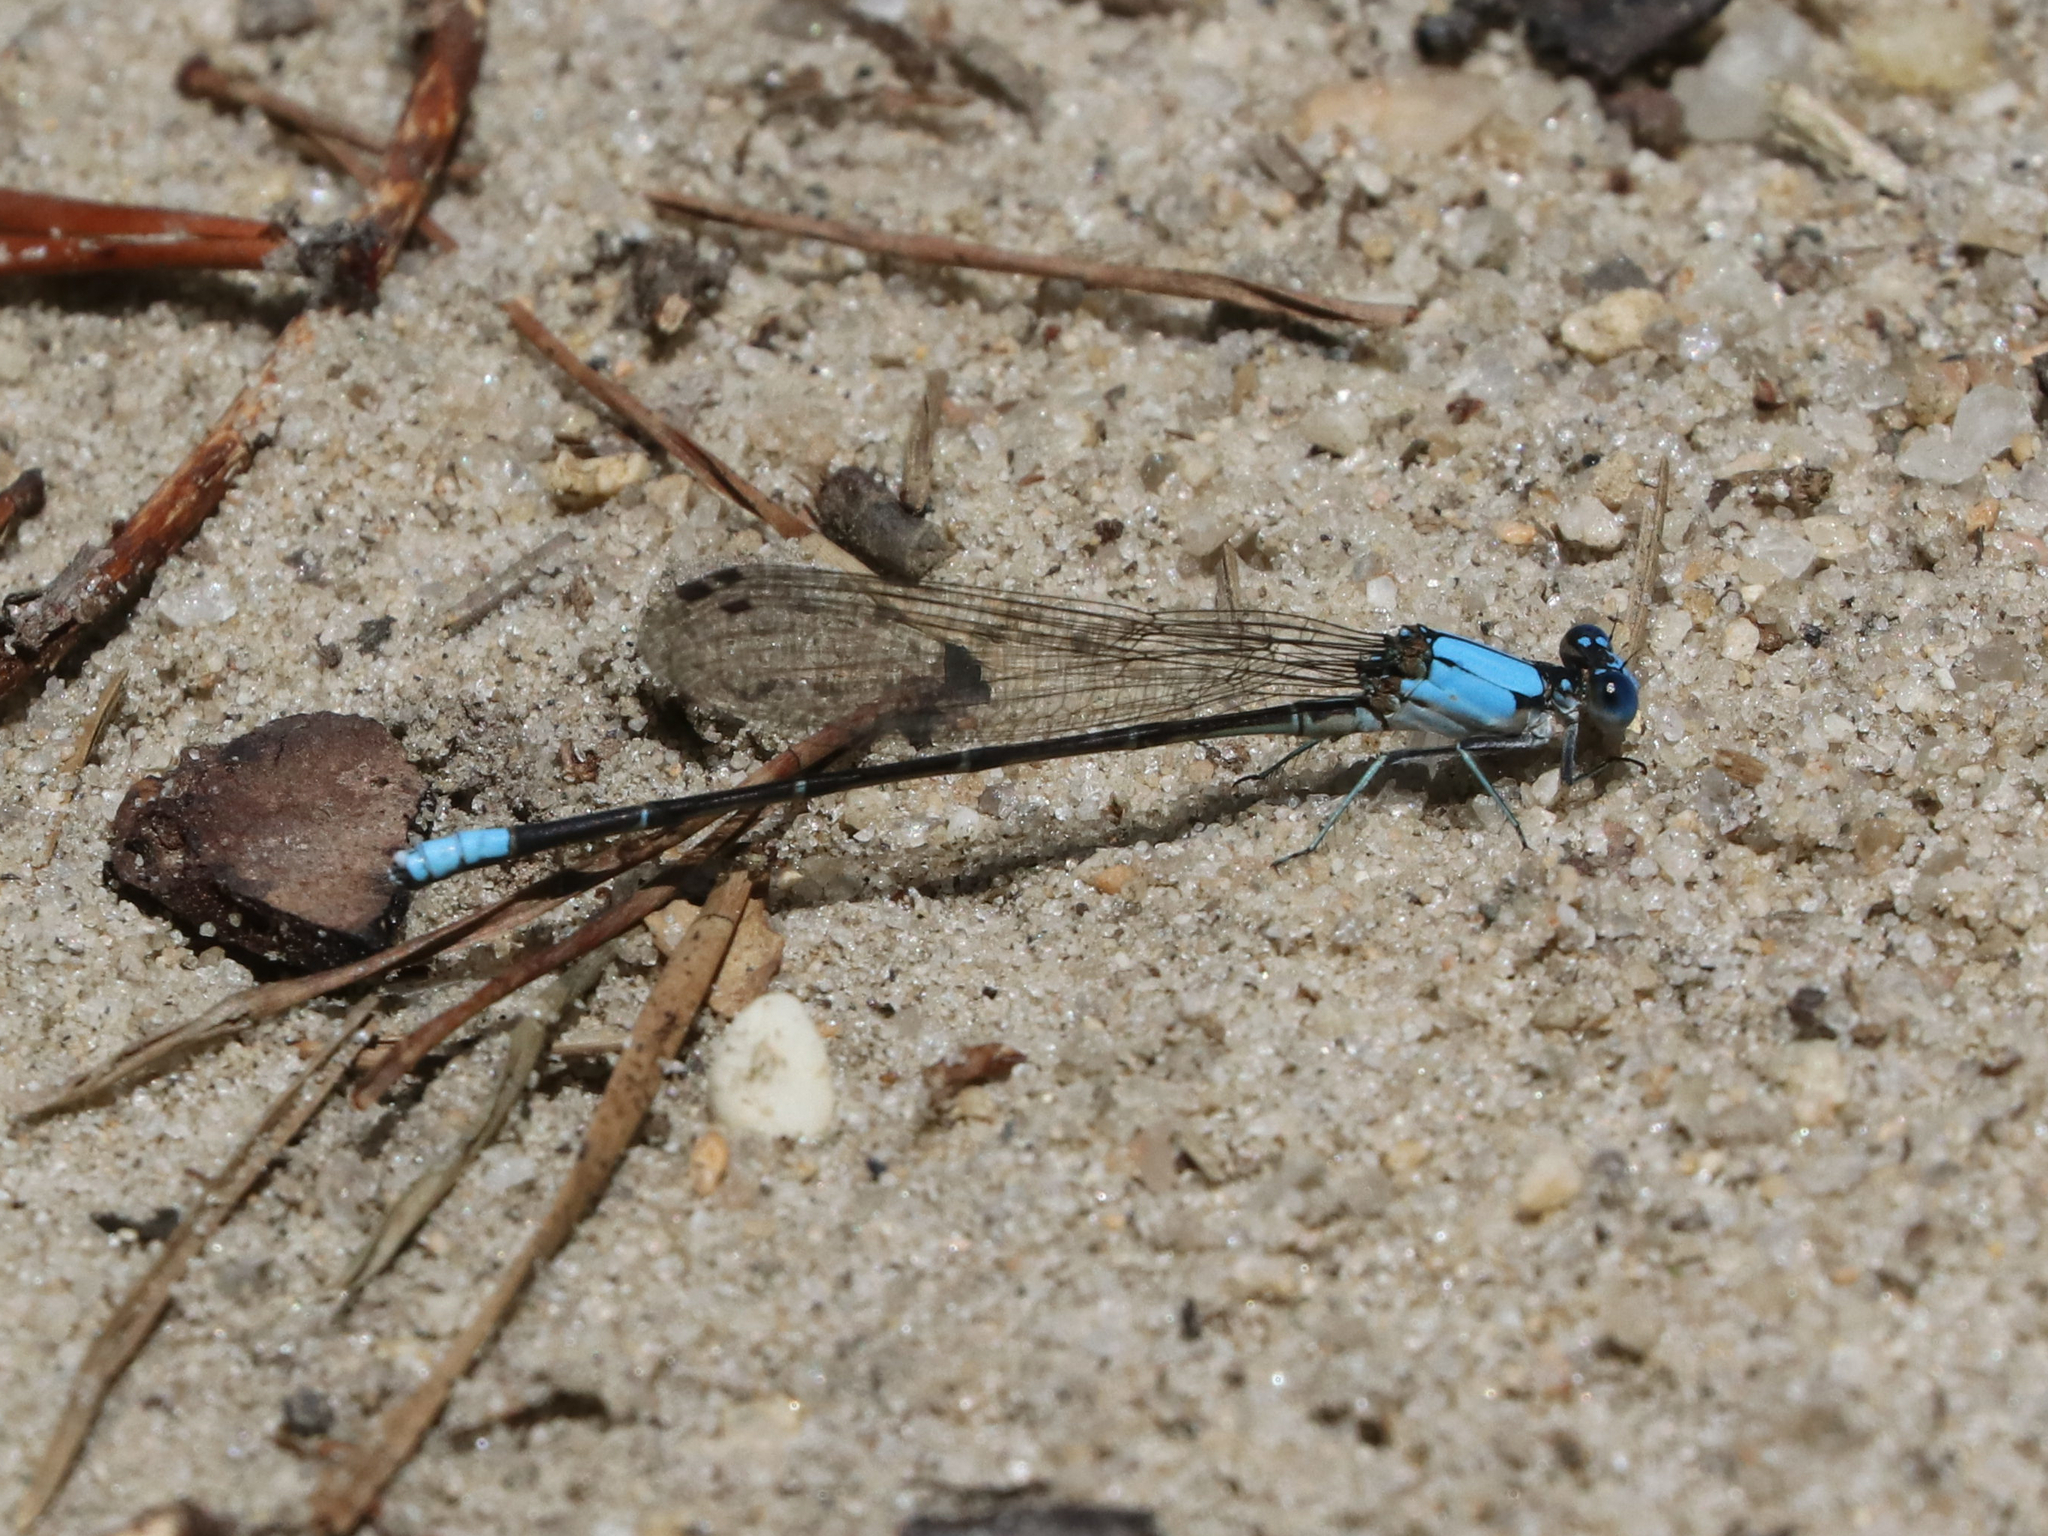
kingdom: Animalia
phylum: Arthropoda
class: Insecta
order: Odonata
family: Coenagrionidae
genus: Argia
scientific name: Argia apicalis
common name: Blue-fronted dancer
